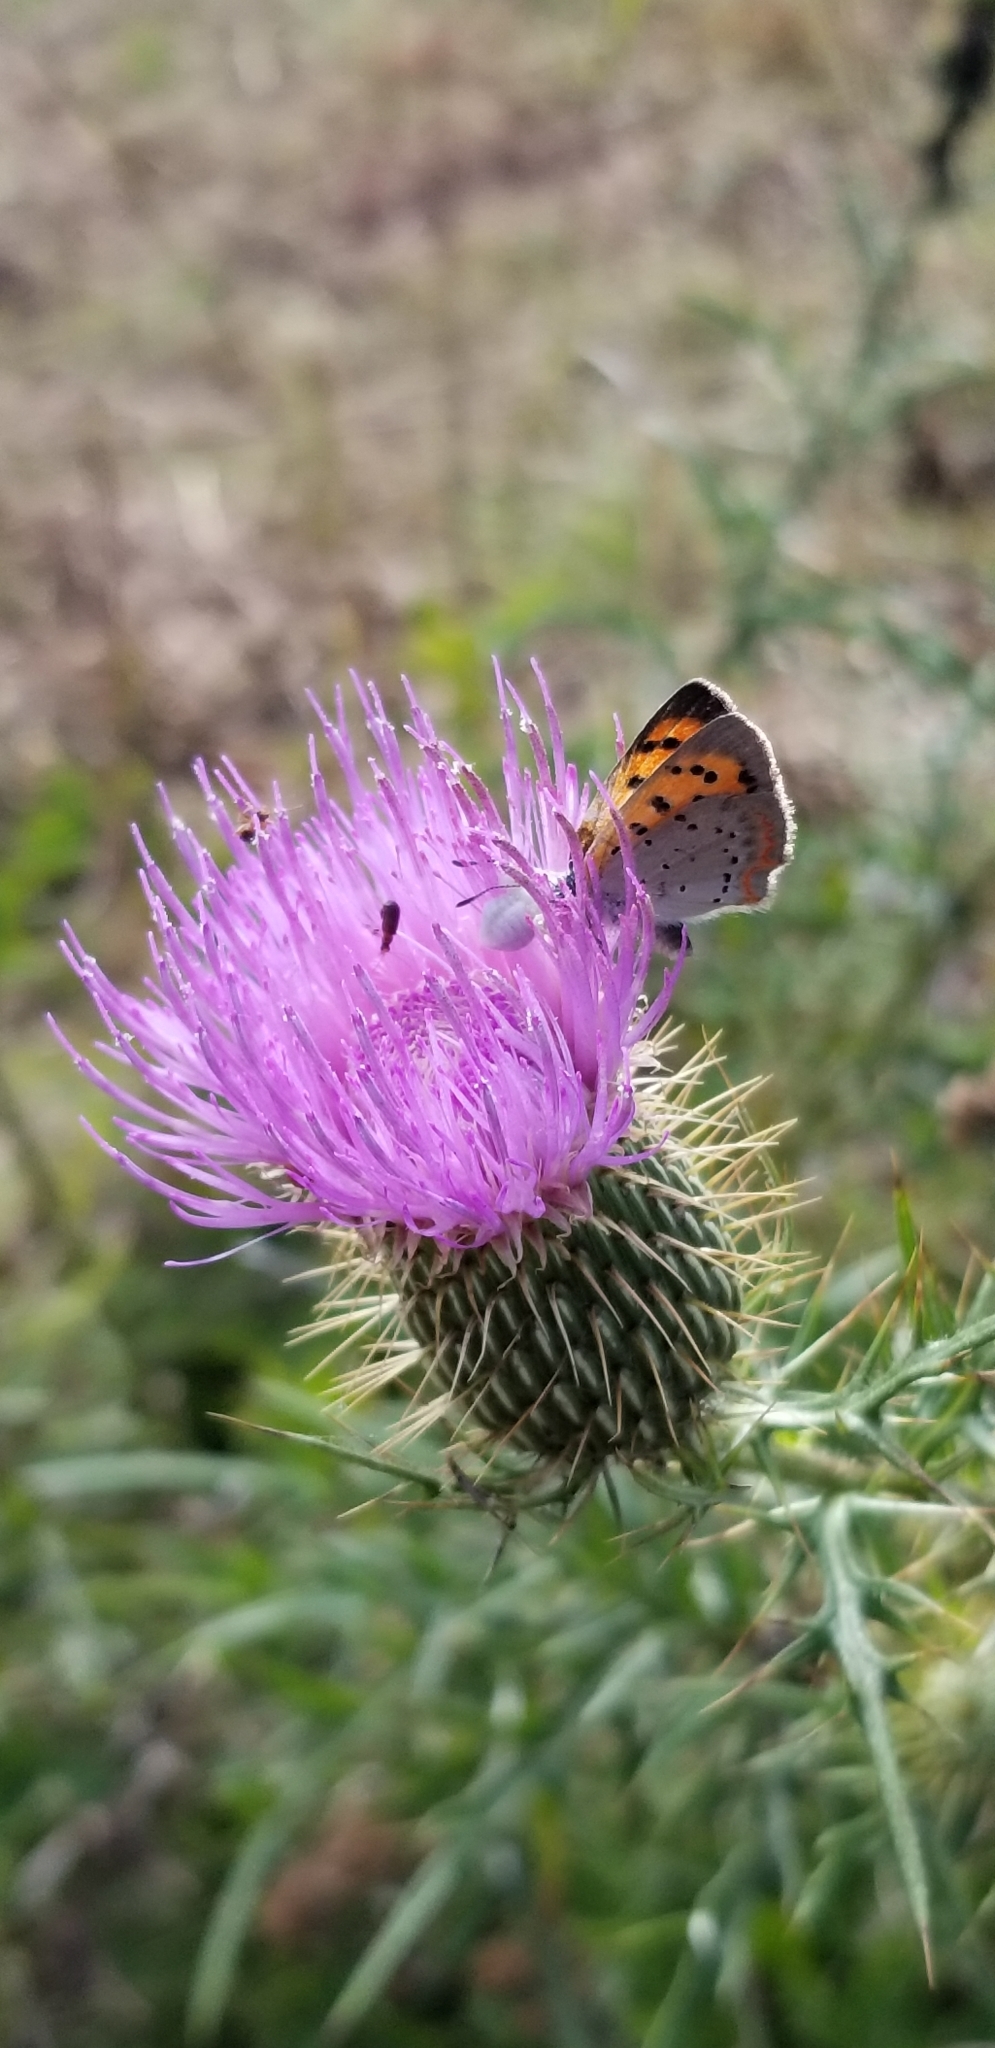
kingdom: Animalia
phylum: Arthropoda
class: Insecta
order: Lepidoptera
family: Lycaenidae
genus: Lycaena
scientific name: Lycaena hypophlaeas
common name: American copper
